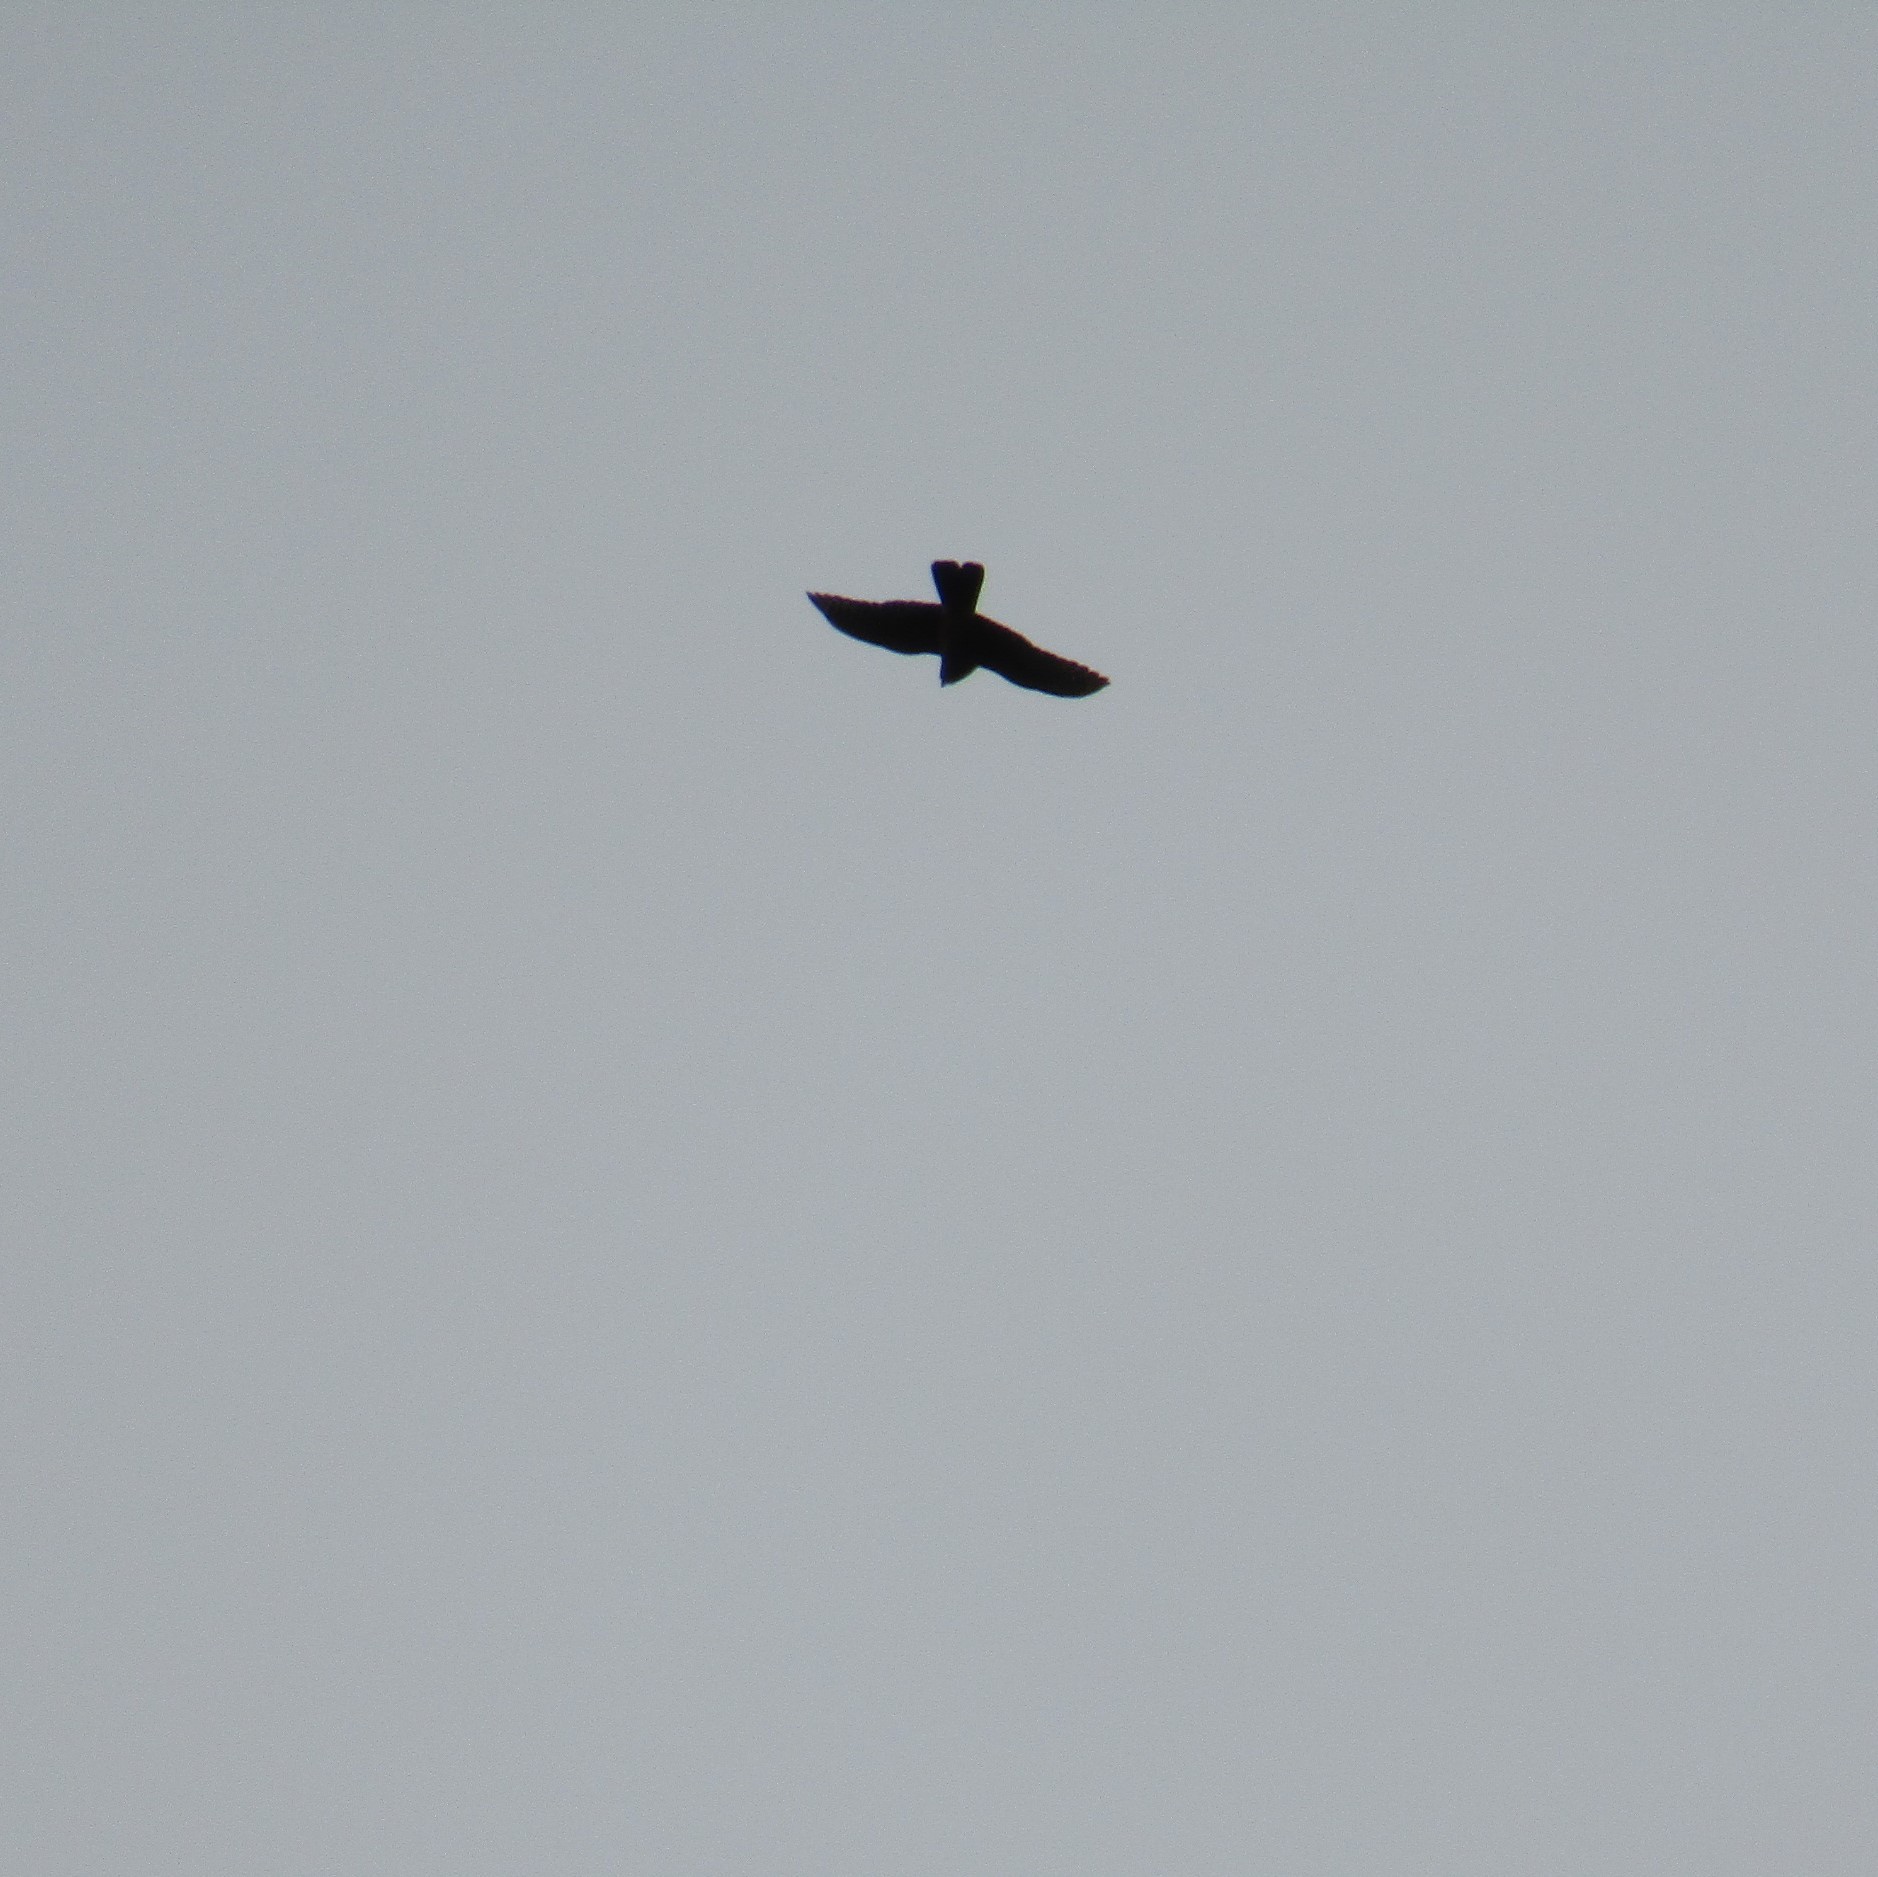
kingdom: Animalia
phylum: Chordata
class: Aves
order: Falconiformes
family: Falconidae
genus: Falco
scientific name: Falco novaeseelandiae
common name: New zealand falcon
